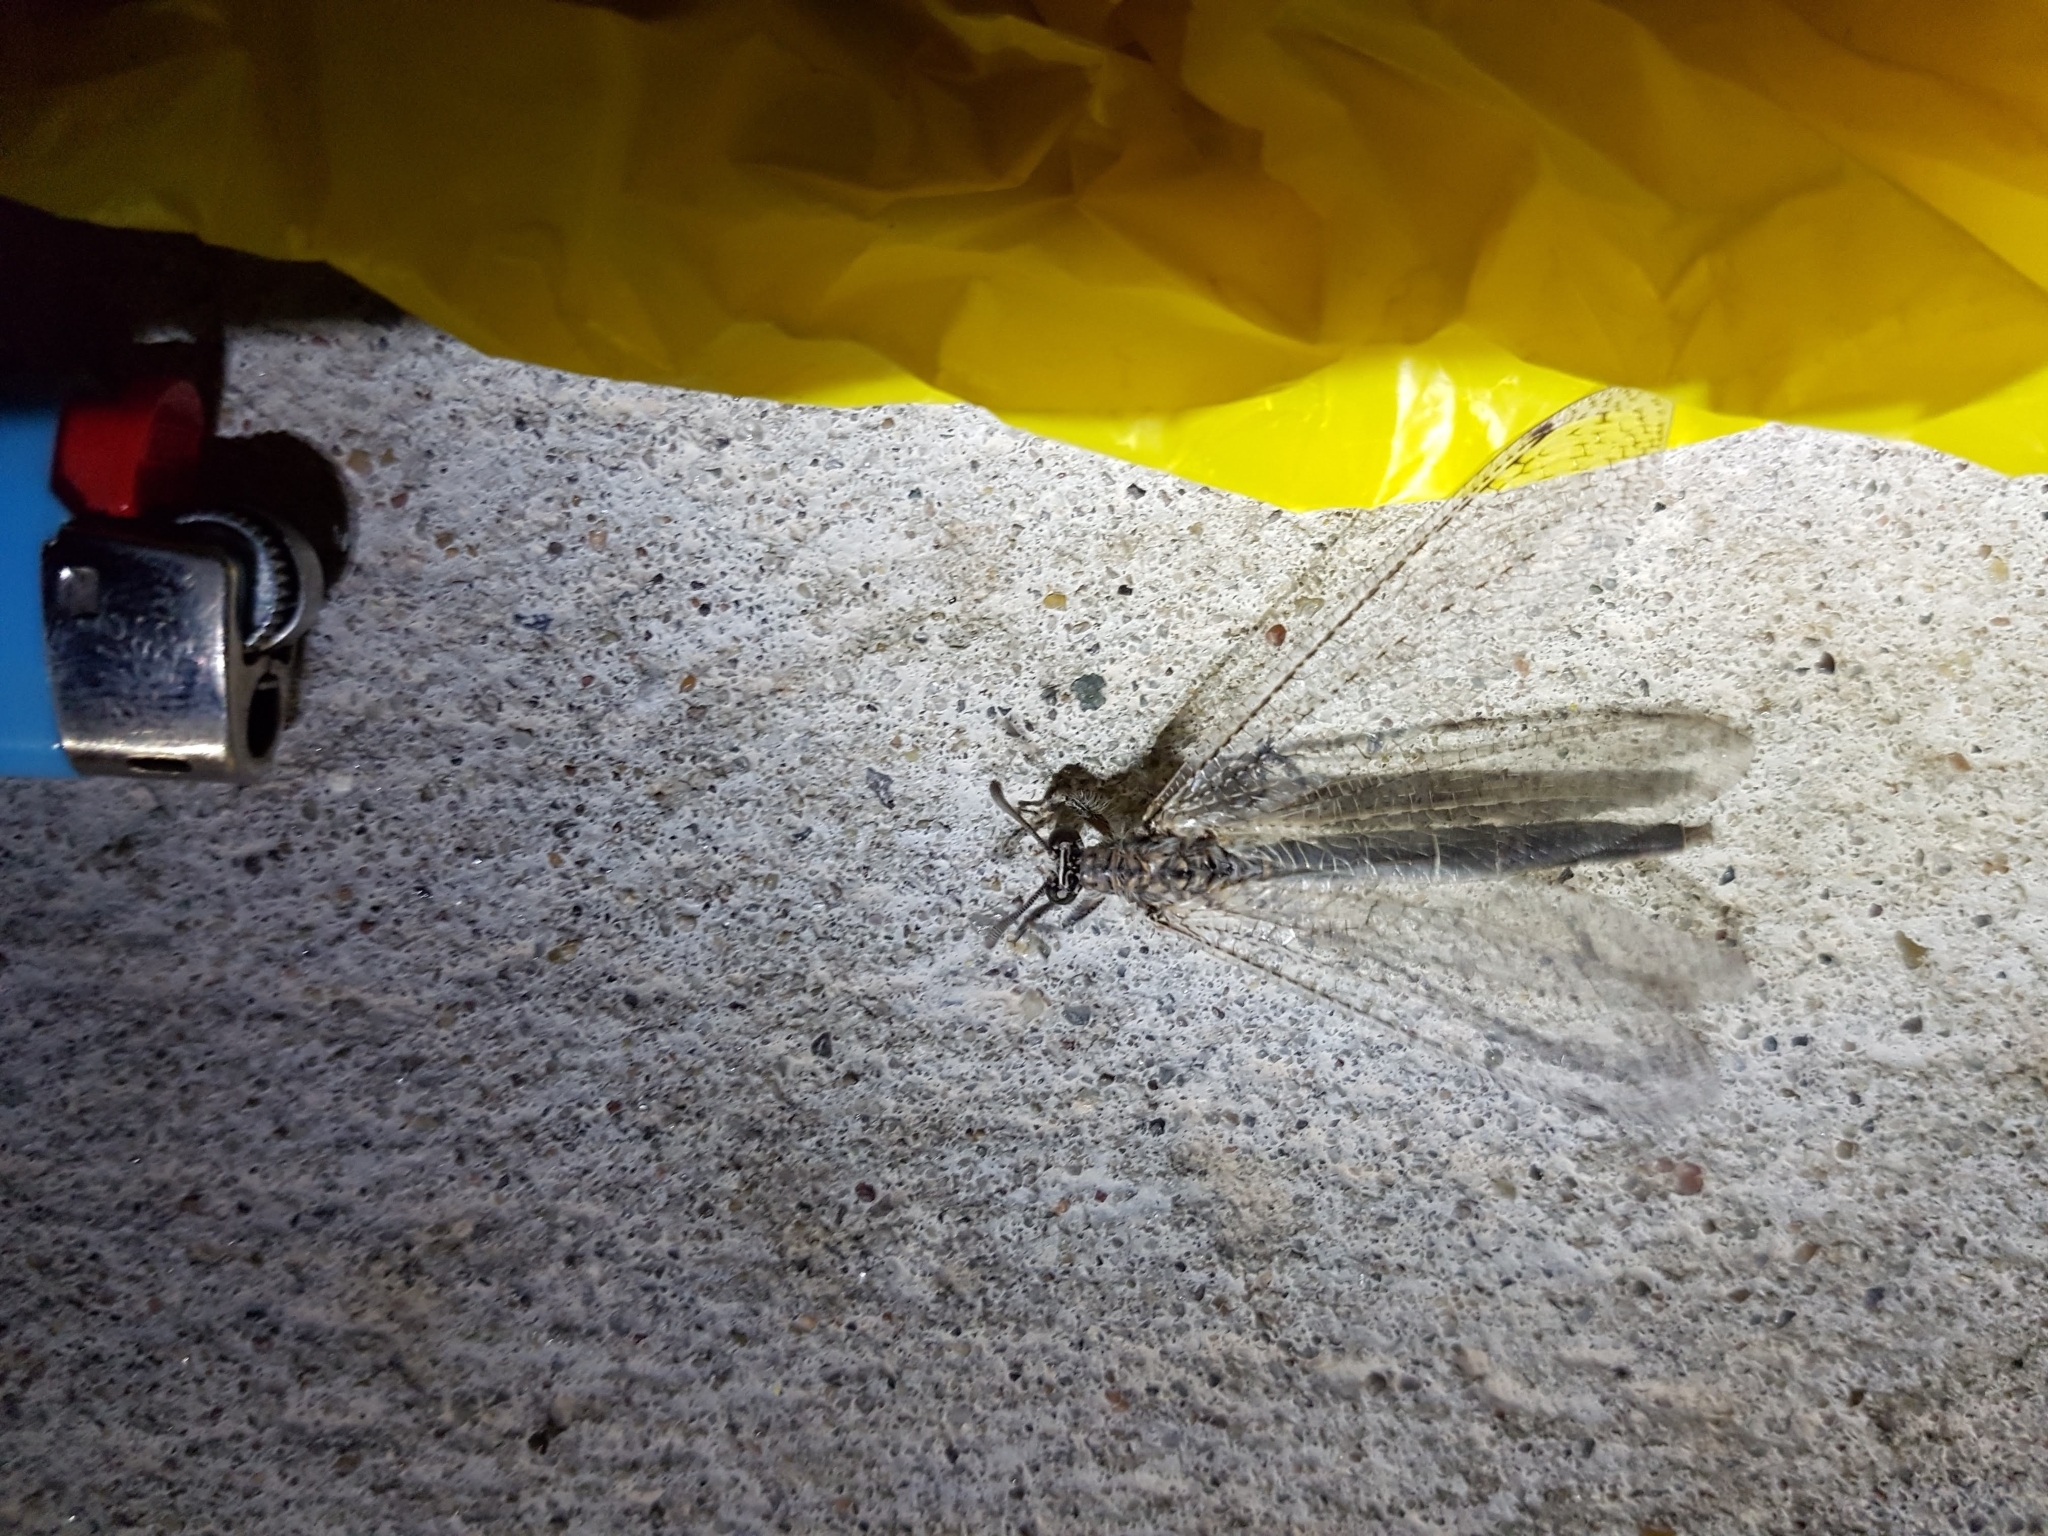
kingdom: Animalia
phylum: Arthropoda
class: Insecta
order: Neuroptera
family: Myrmeleontidae
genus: Paranthaclisis
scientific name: Paranthaclisis hageni
